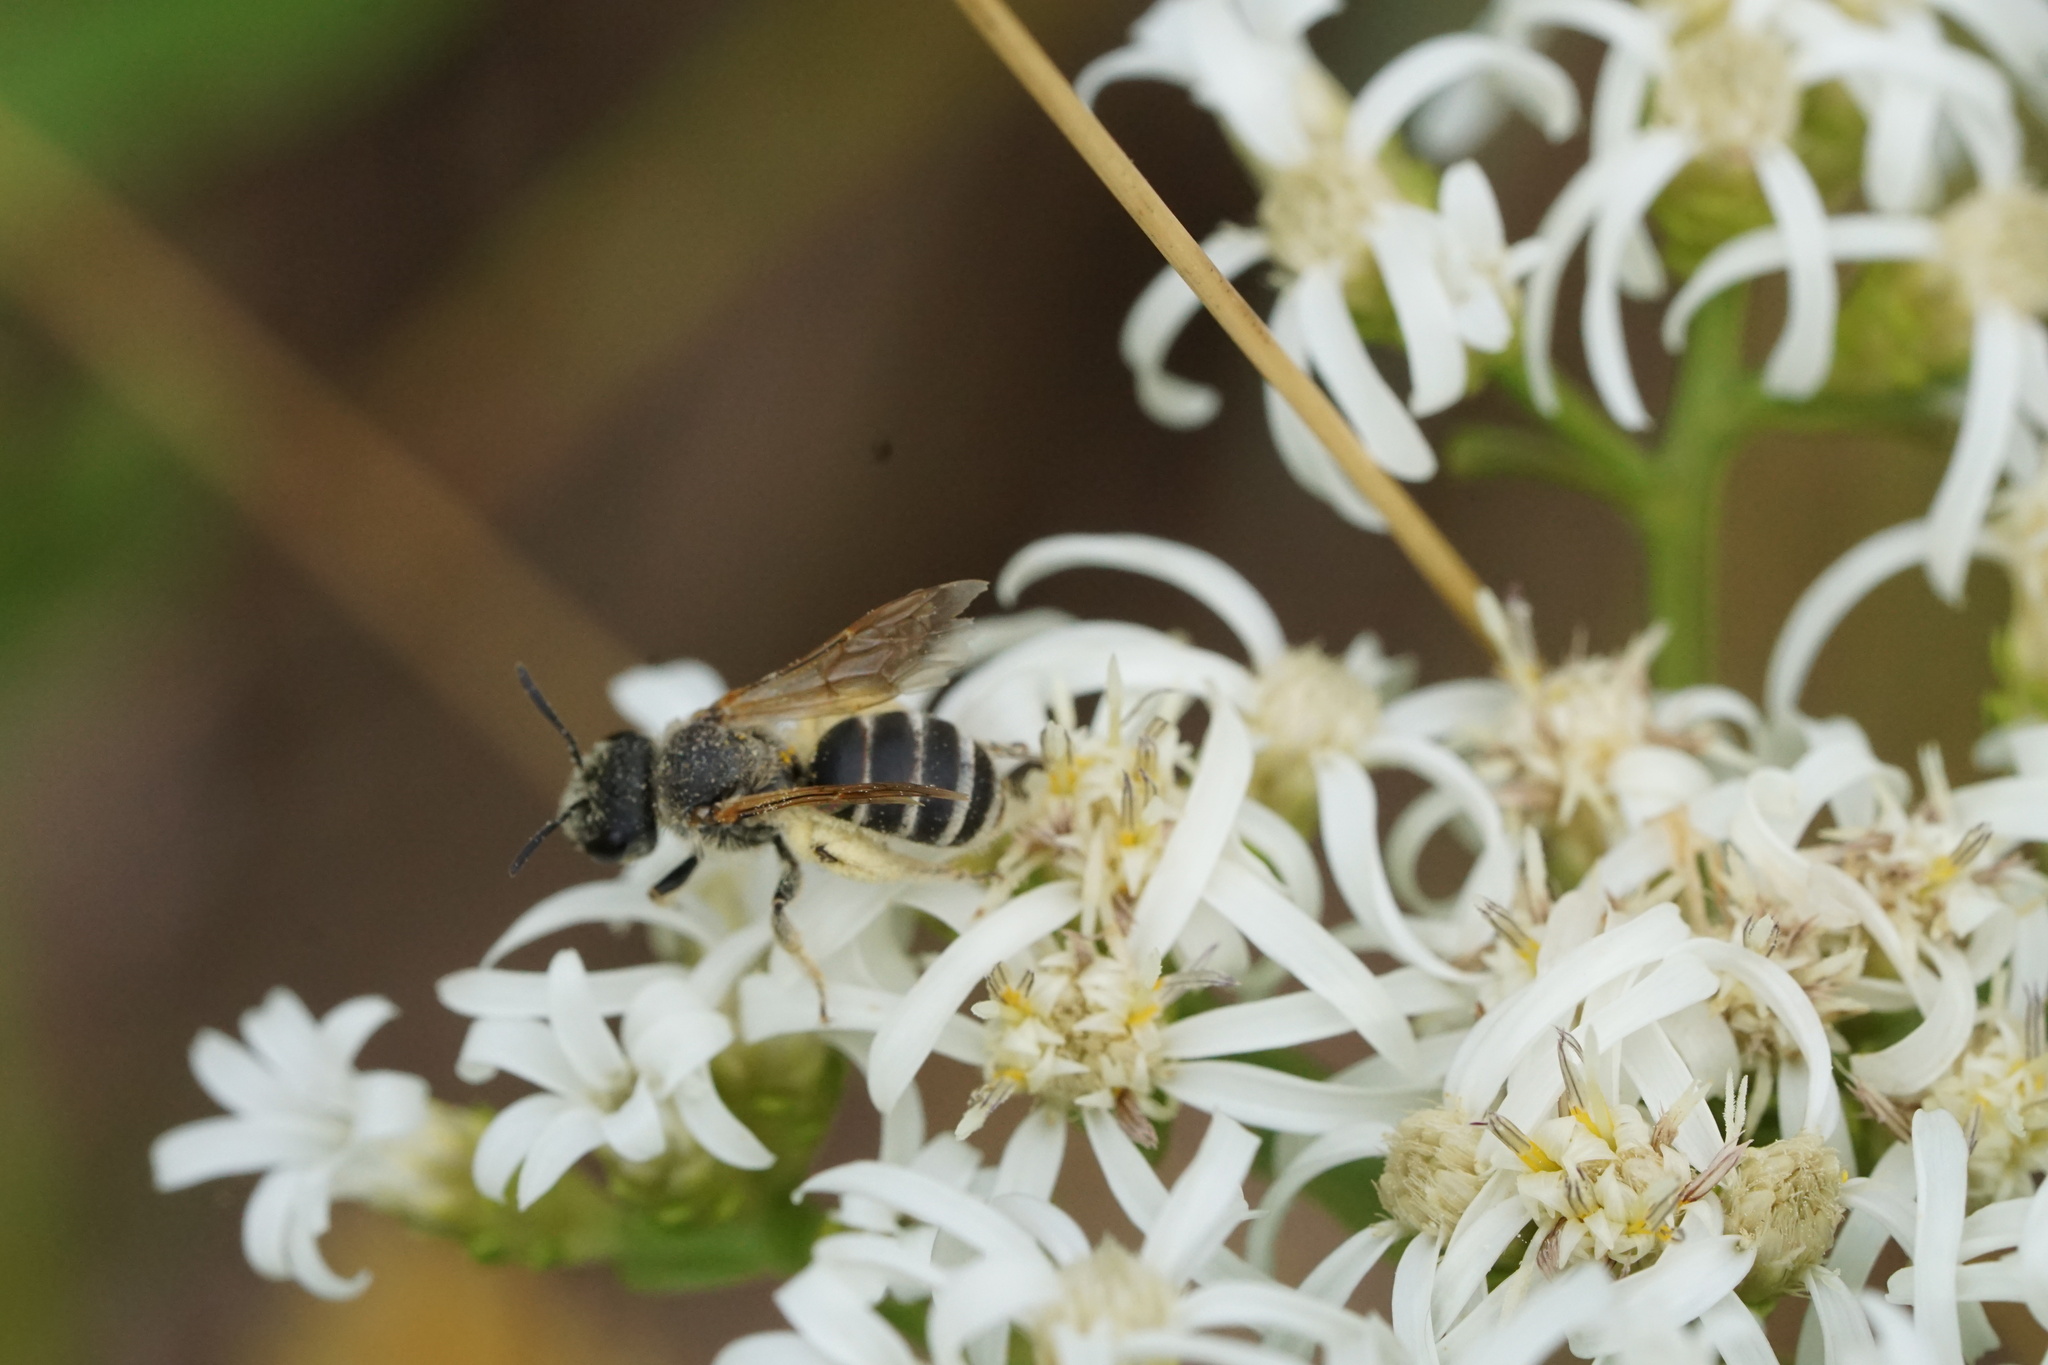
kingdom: Animalia
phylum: Arthropoda
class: Insecta
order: Hymenoptera
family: Halictidae
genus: Halictus
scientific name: Halictus ligatus
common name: Ligated furrow bee
